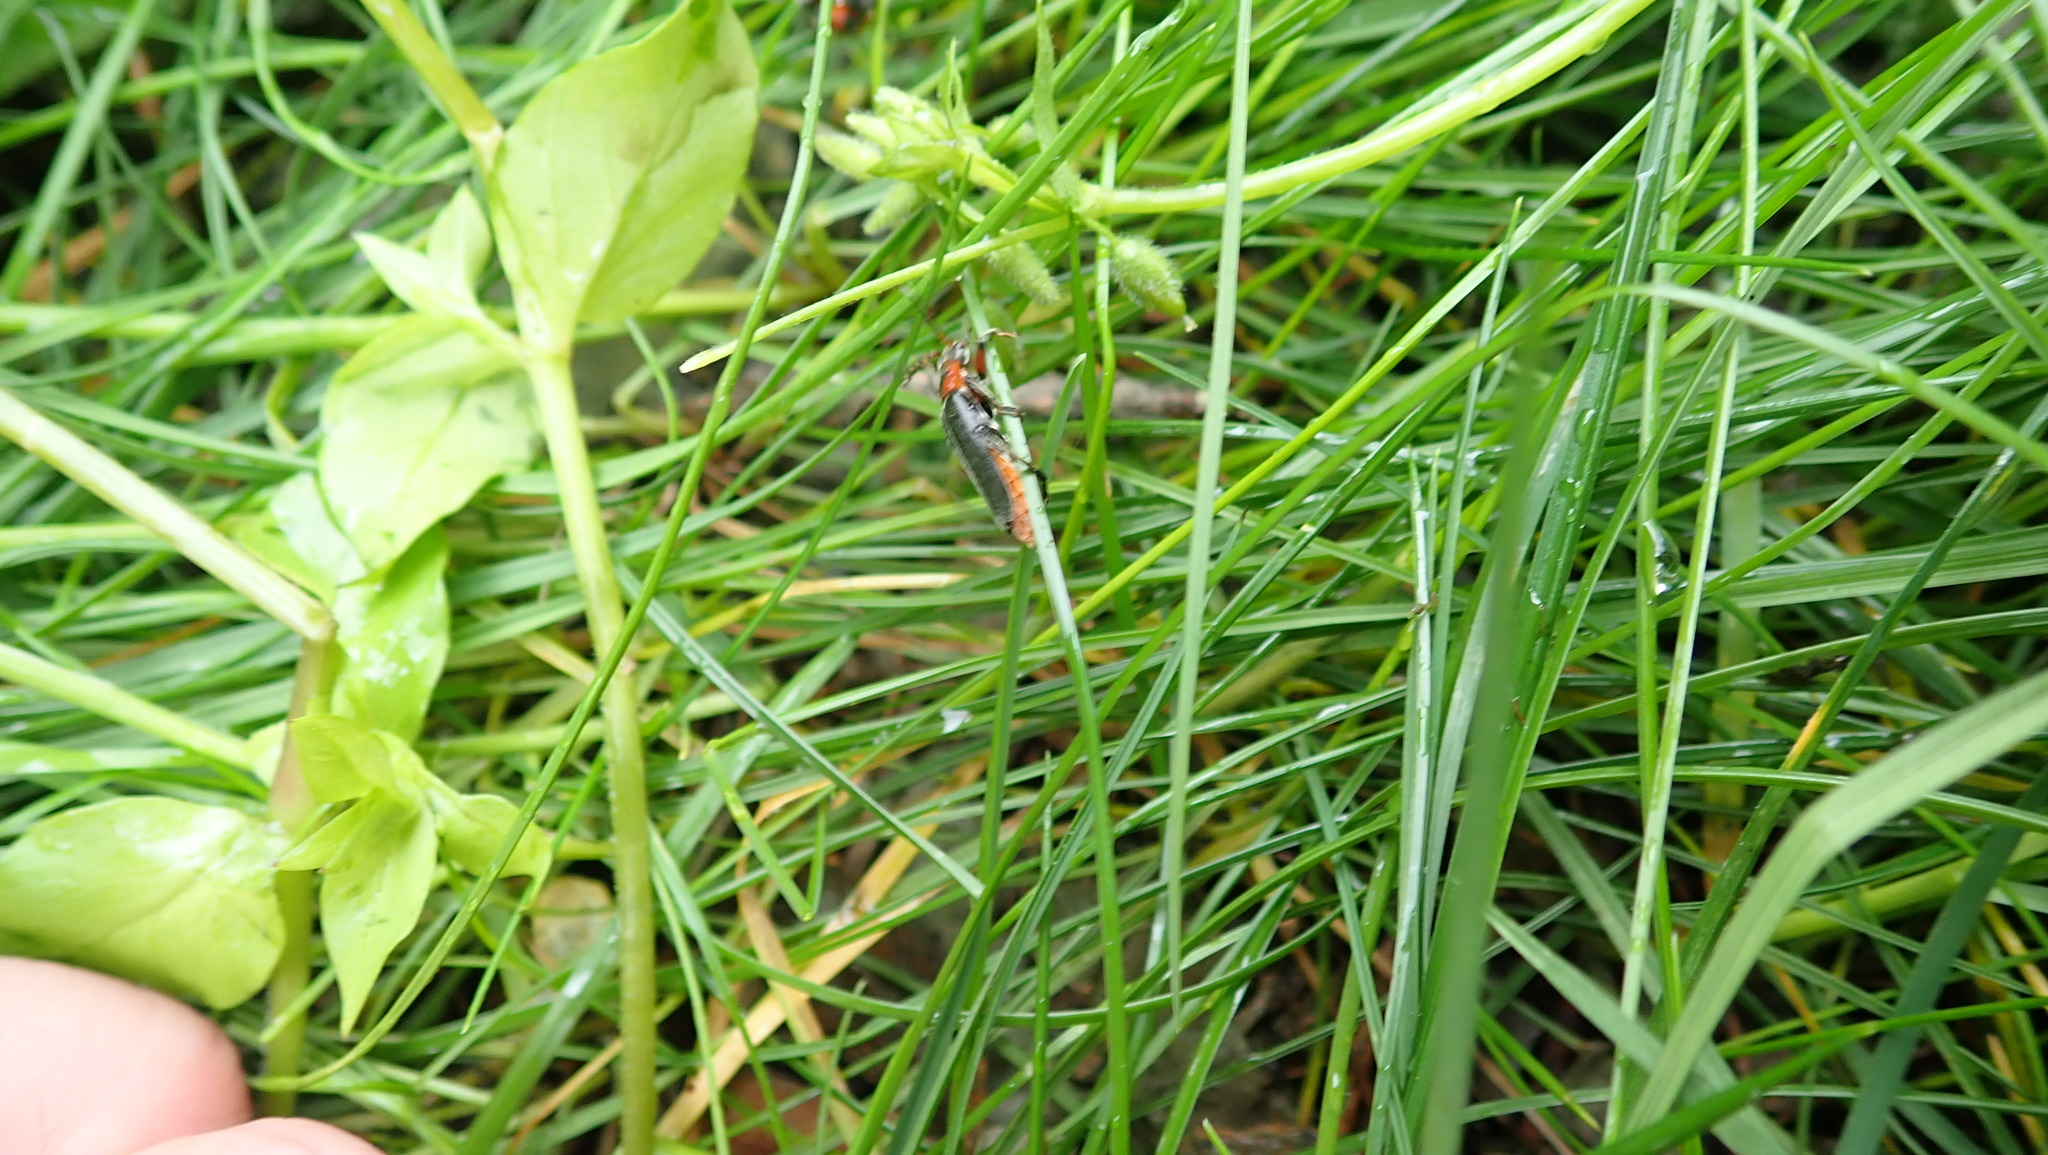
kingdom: Animalia
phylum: Arthropoda
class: Insecta
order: Coleoptera
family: Cantharidae
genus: Cantharis
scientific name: Cantharis rustica
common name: Soldier beetle
